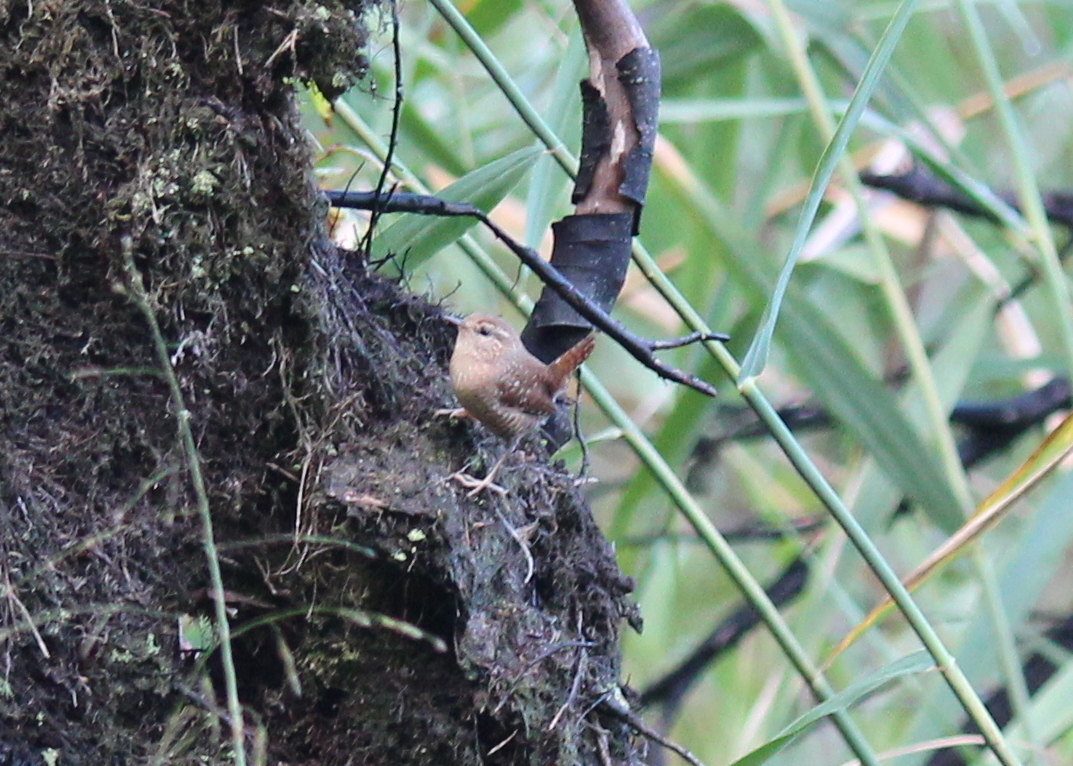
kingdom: Animalia
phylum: Chordata
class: Aves
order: Passeriformes
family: Troglodytidae
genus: Troglodytes
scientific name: Troglodytes hiemalis
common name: Winter wren
